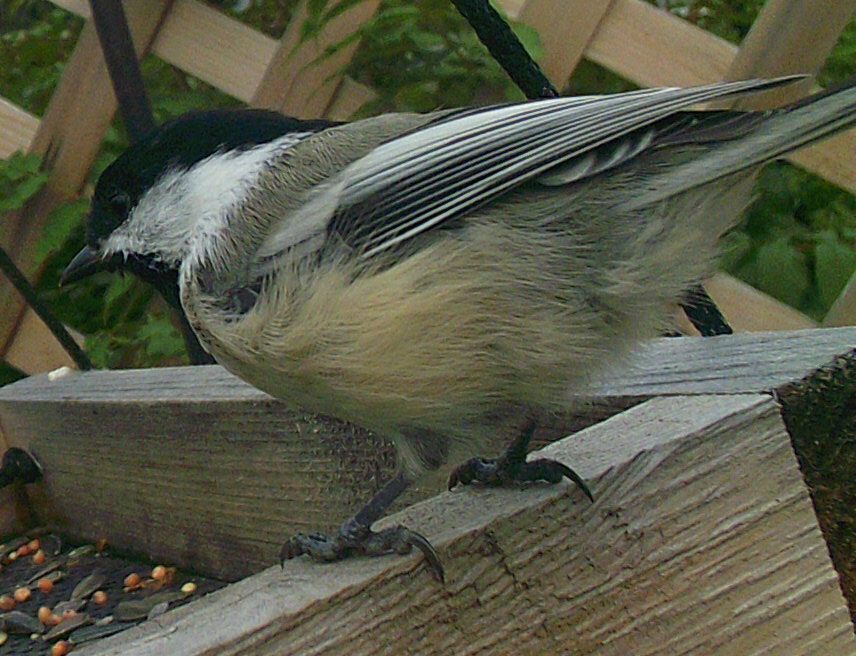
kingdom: Animalia
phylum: Chordata
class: Aves
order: Passeriformes
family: Paridae
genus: Poecile
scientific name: Poecile atricapillus
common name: Black-capped chickadee
